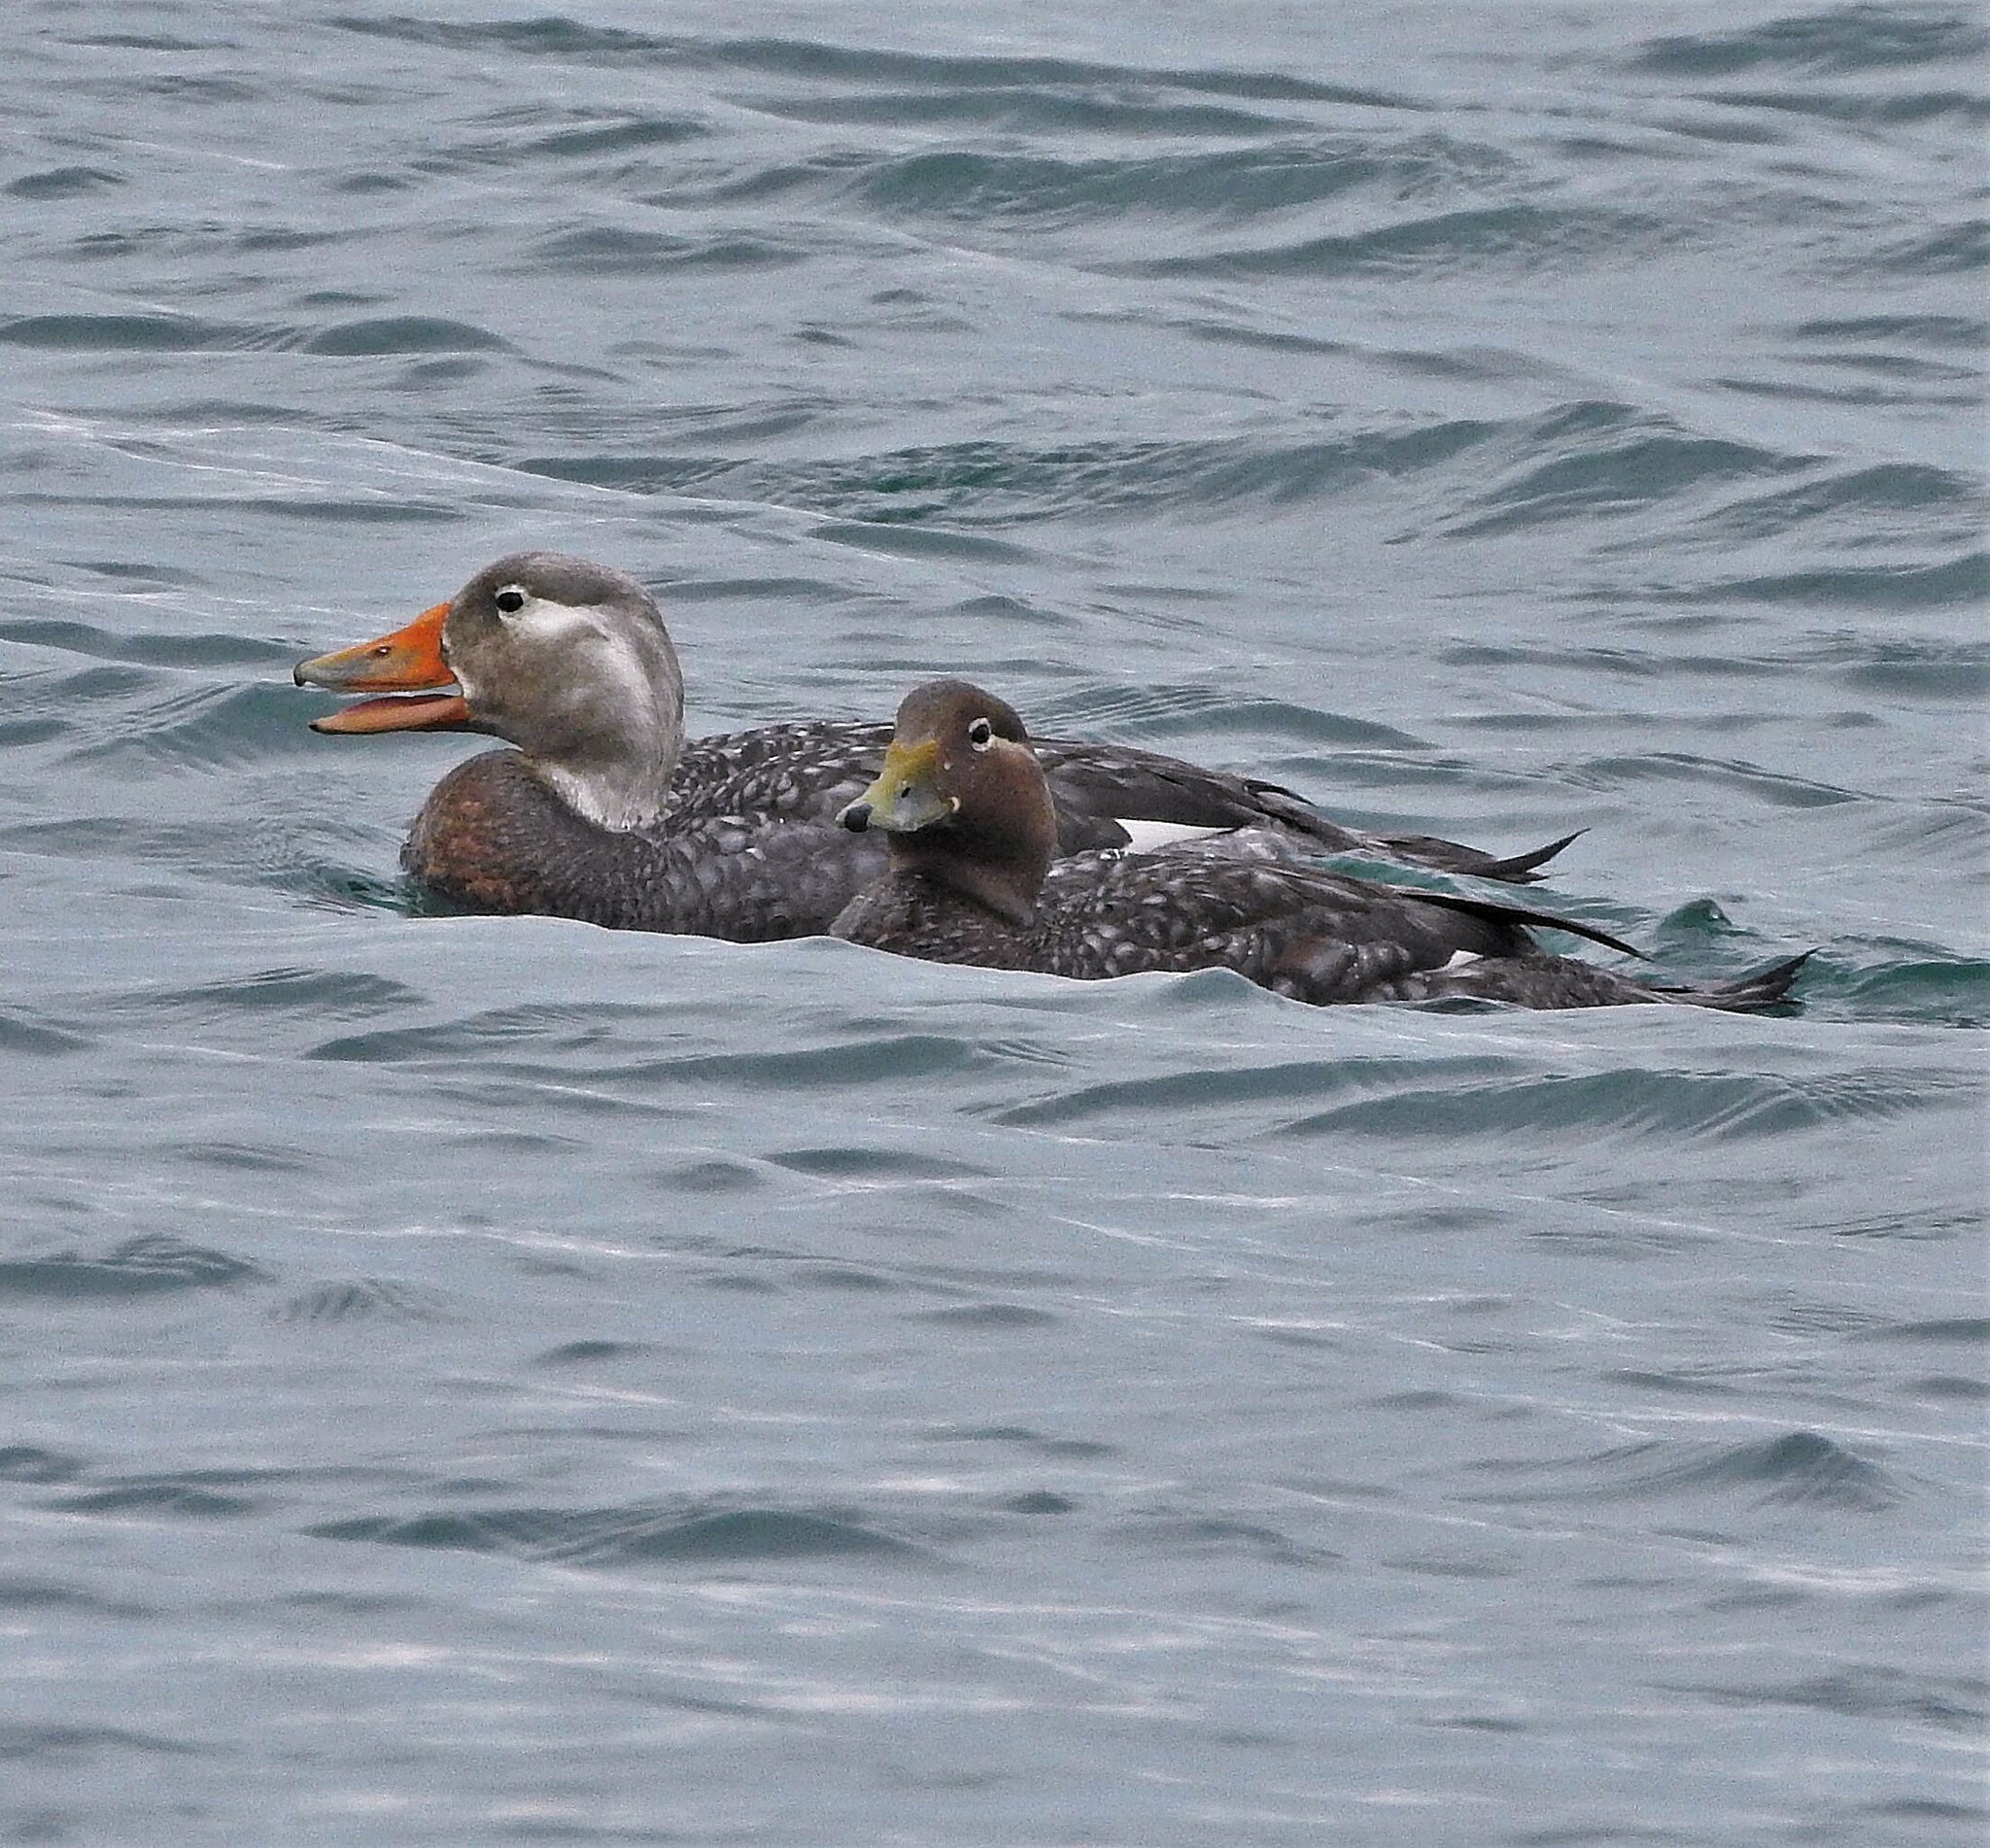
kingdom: Animalia
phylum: Chordata
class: Aves
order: Anseriformes
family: Anatidae
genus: Tachyeres
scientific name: Tachyeres patachonicus
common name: Flying steamer duck
